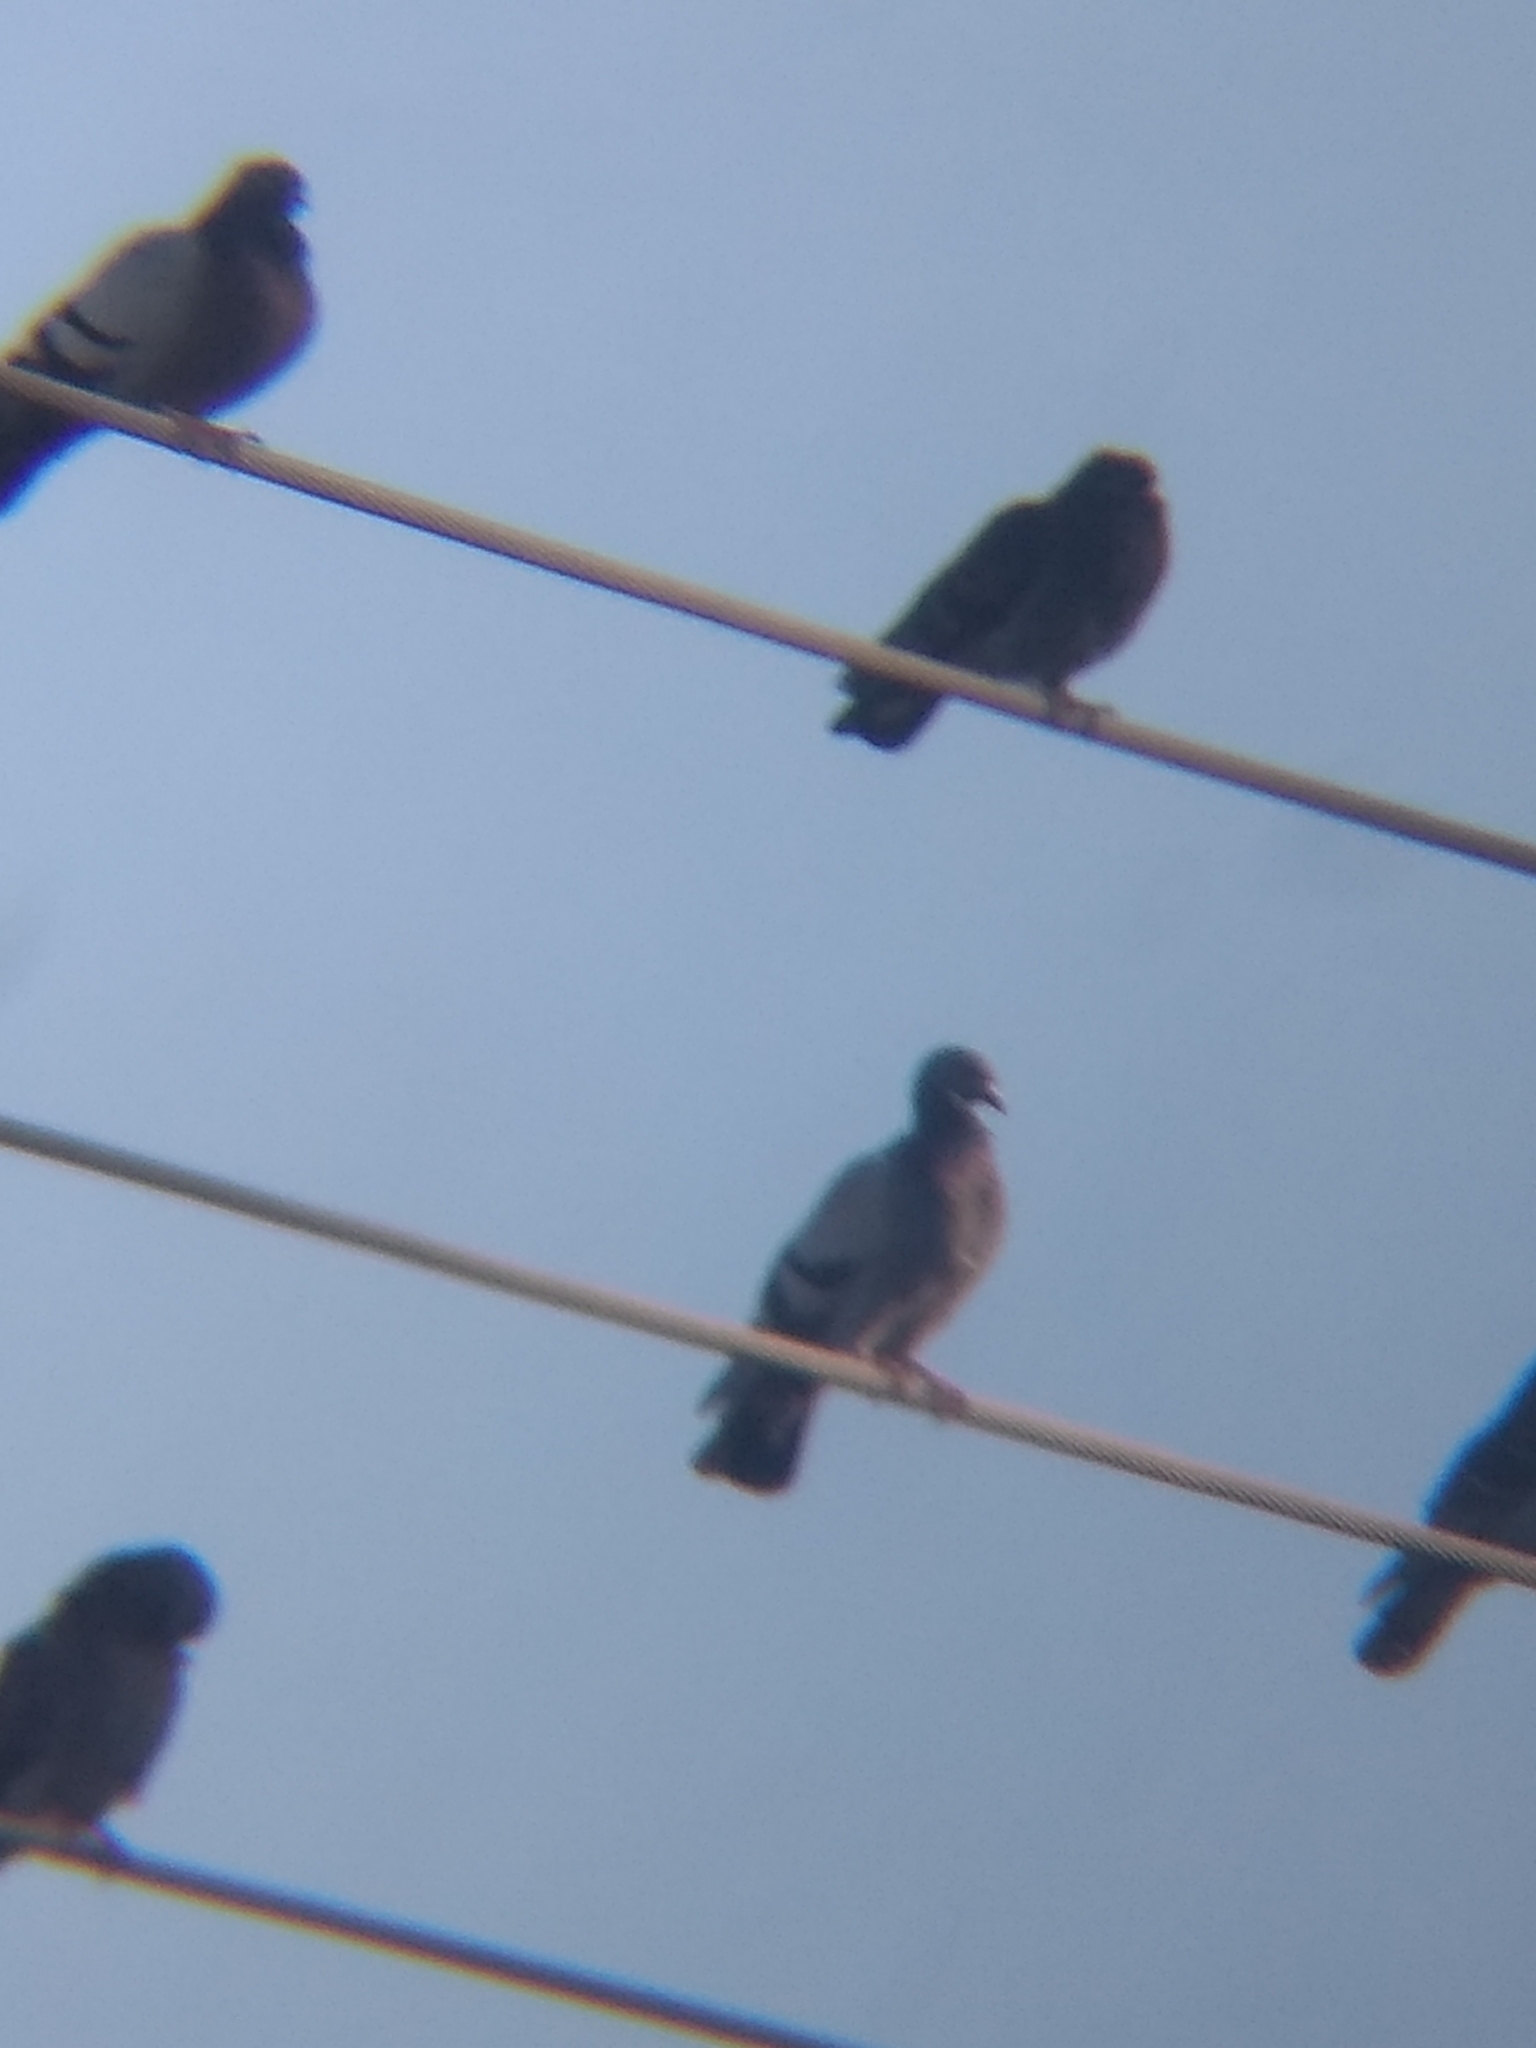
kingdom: Animalia
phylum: Chordata
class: Aves
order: Columbiformes
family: Columbidae
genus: Columba
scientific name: Columba livia
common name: Rock pigeon
